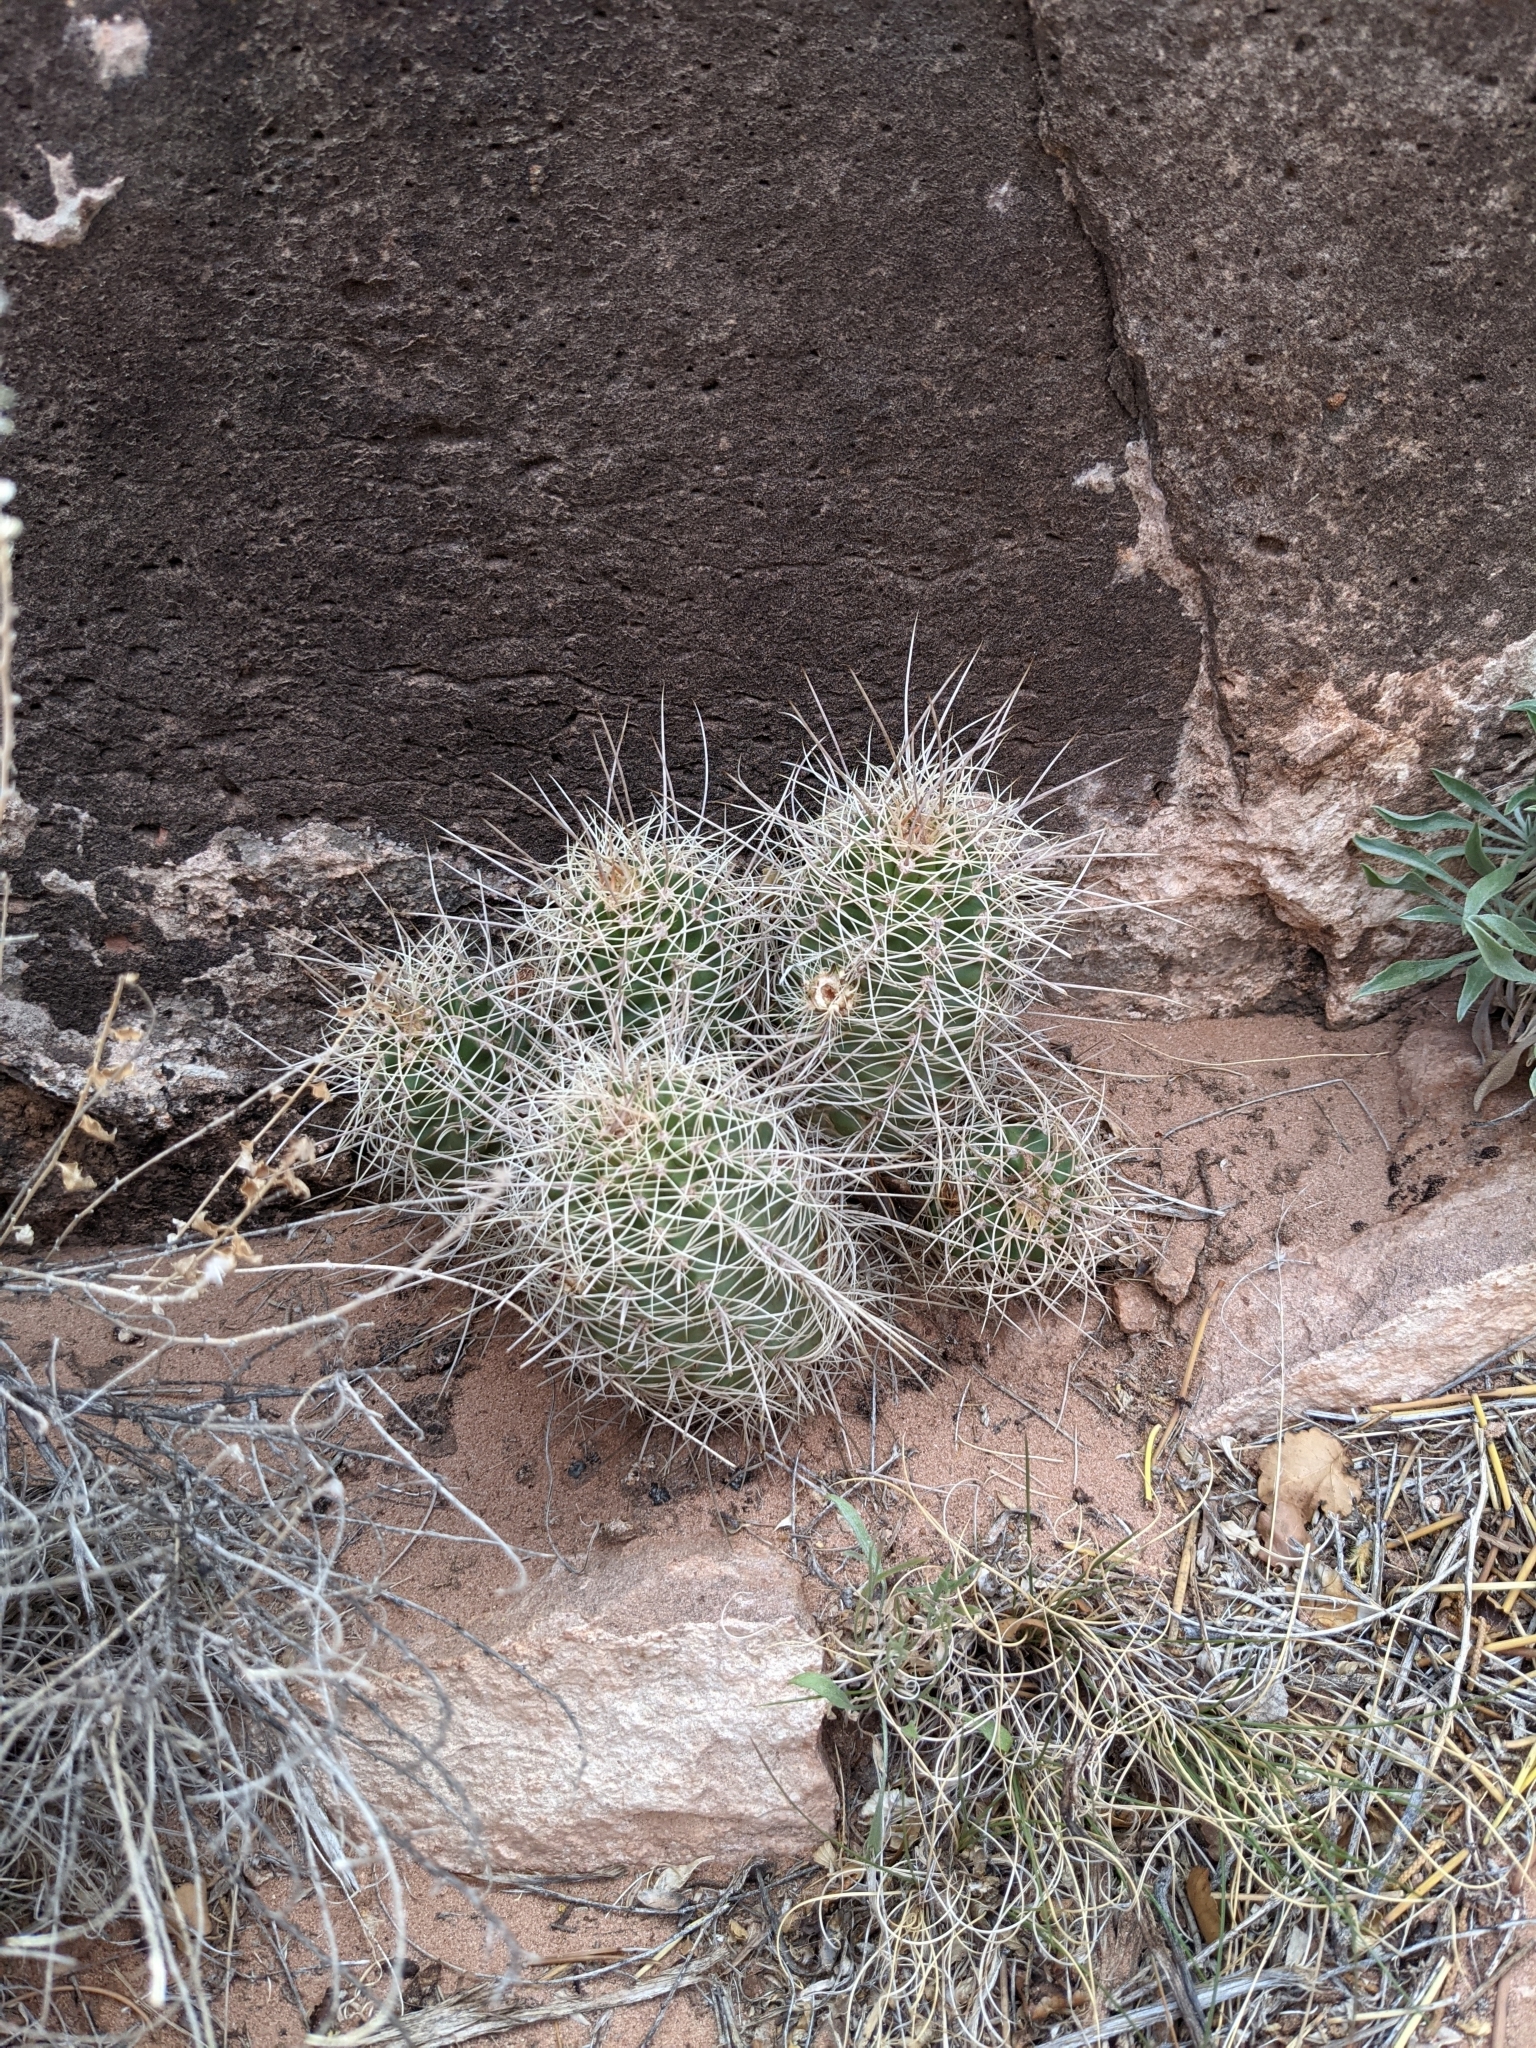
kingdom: Plantae
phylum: Tracheophyta
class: Magnoliopsida
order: Caryophyllales
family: Cactaceae
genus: Echinocereus
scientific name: Echinocereus triglochidiatus
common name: Claretcup hedgehog
